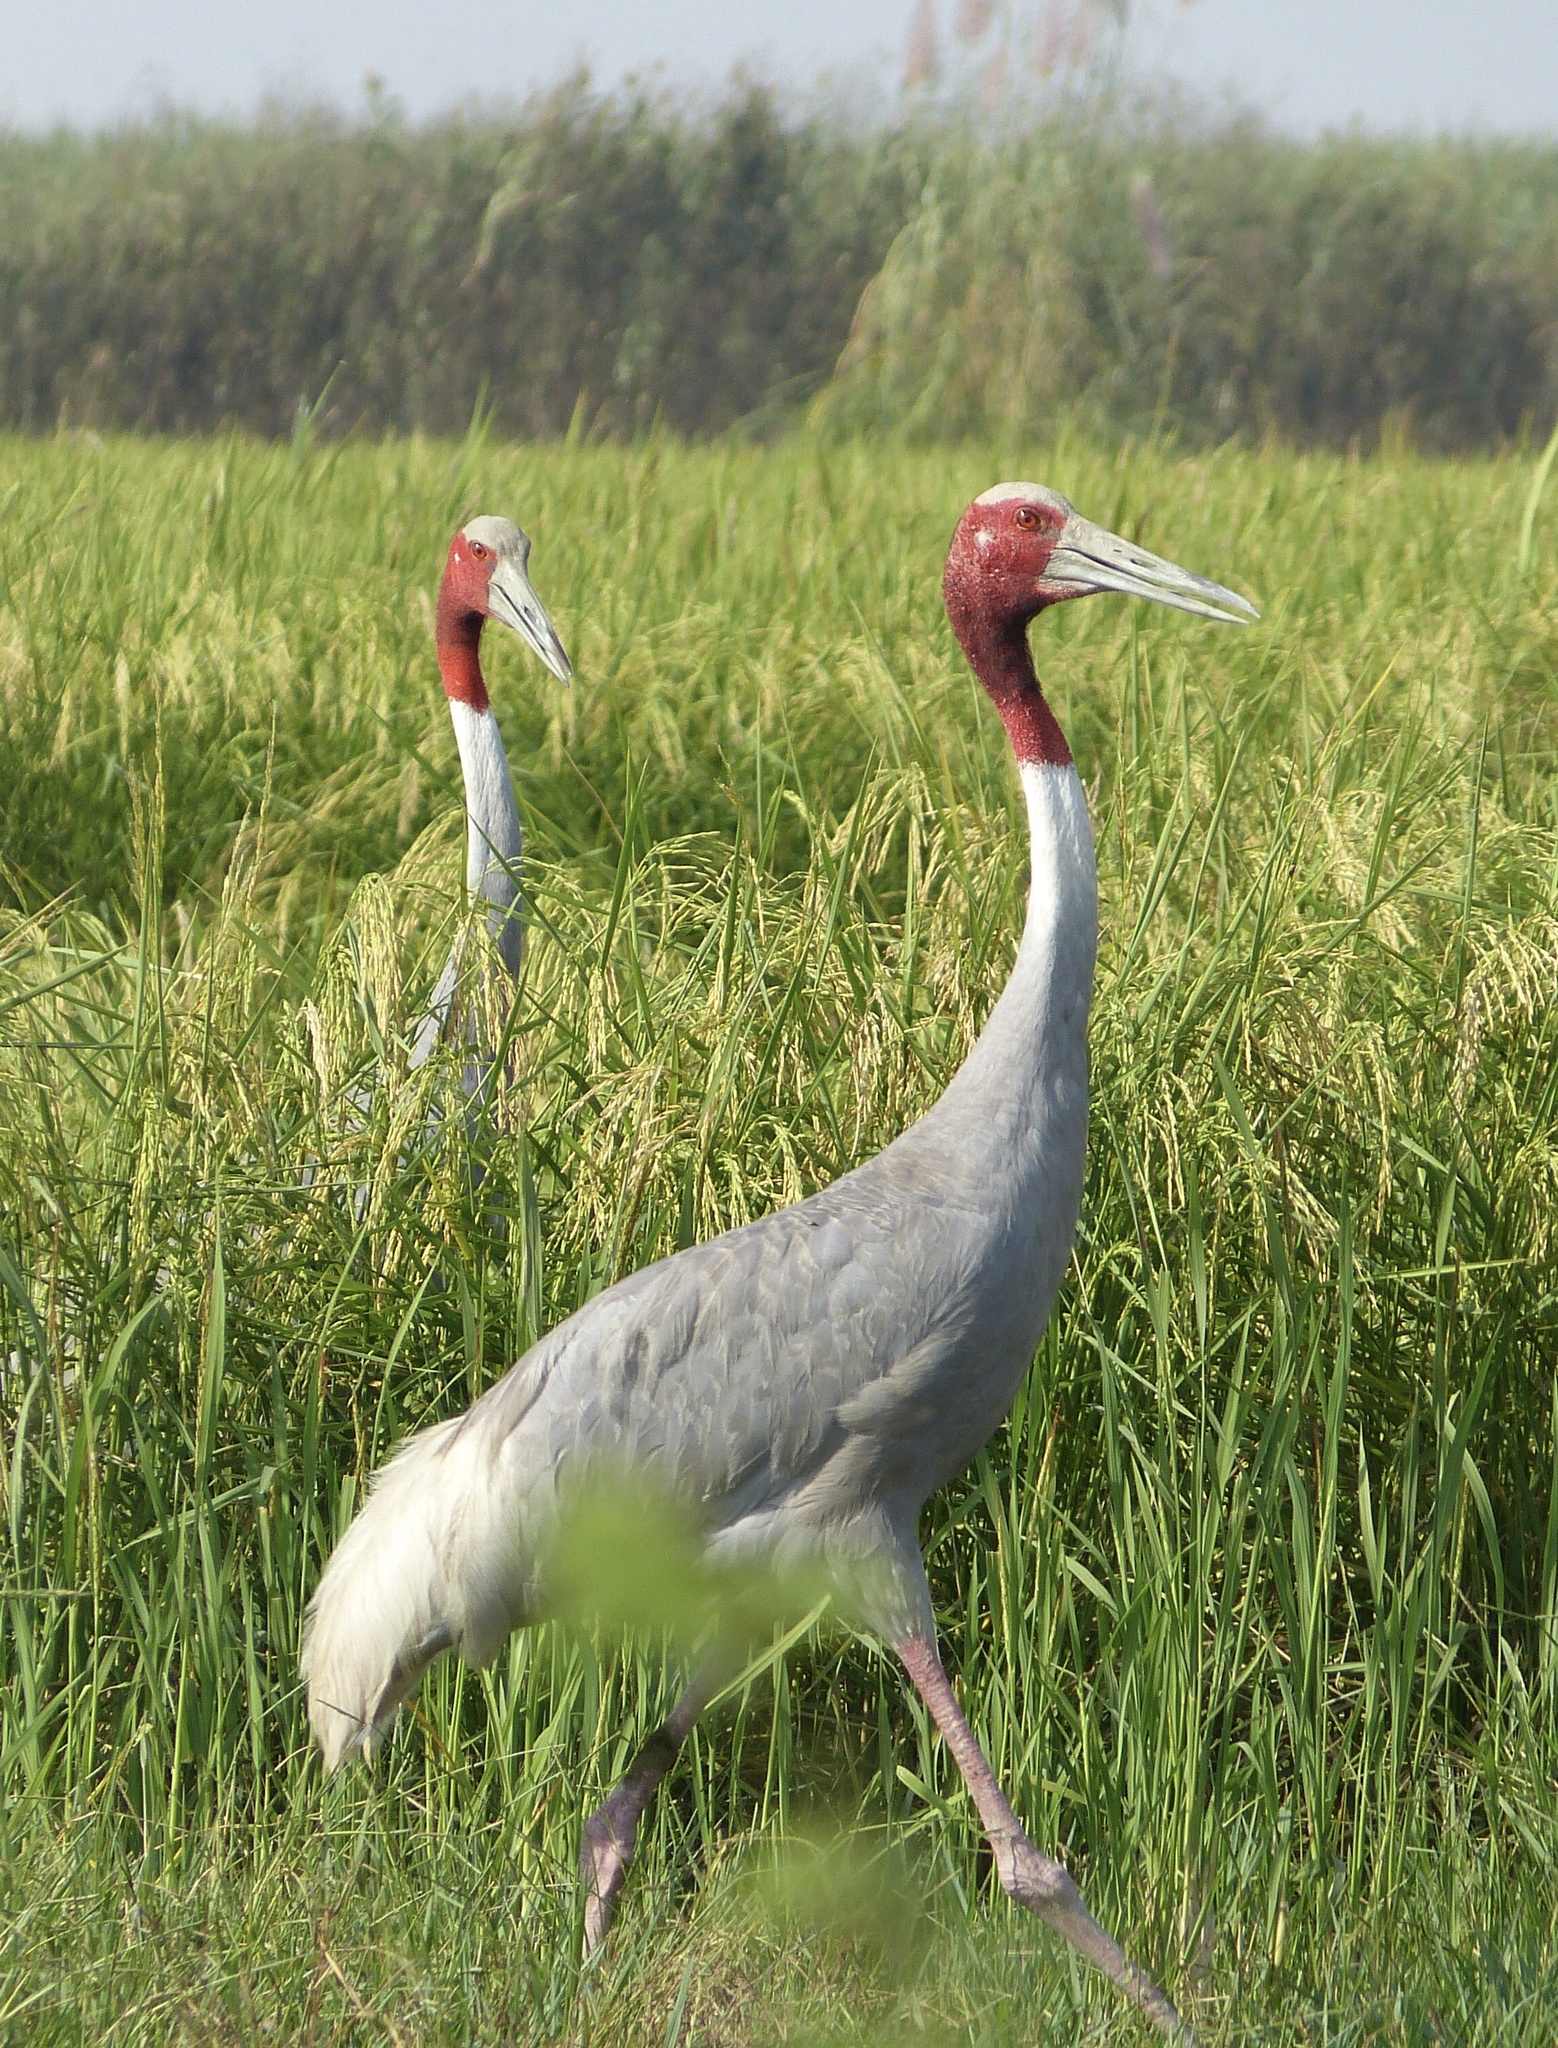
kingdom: Animalia
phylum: Chordata
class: Aves
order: Gruiformes
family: Gruidae
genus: Grus
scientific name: Grus antigone
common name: Sarus crane
